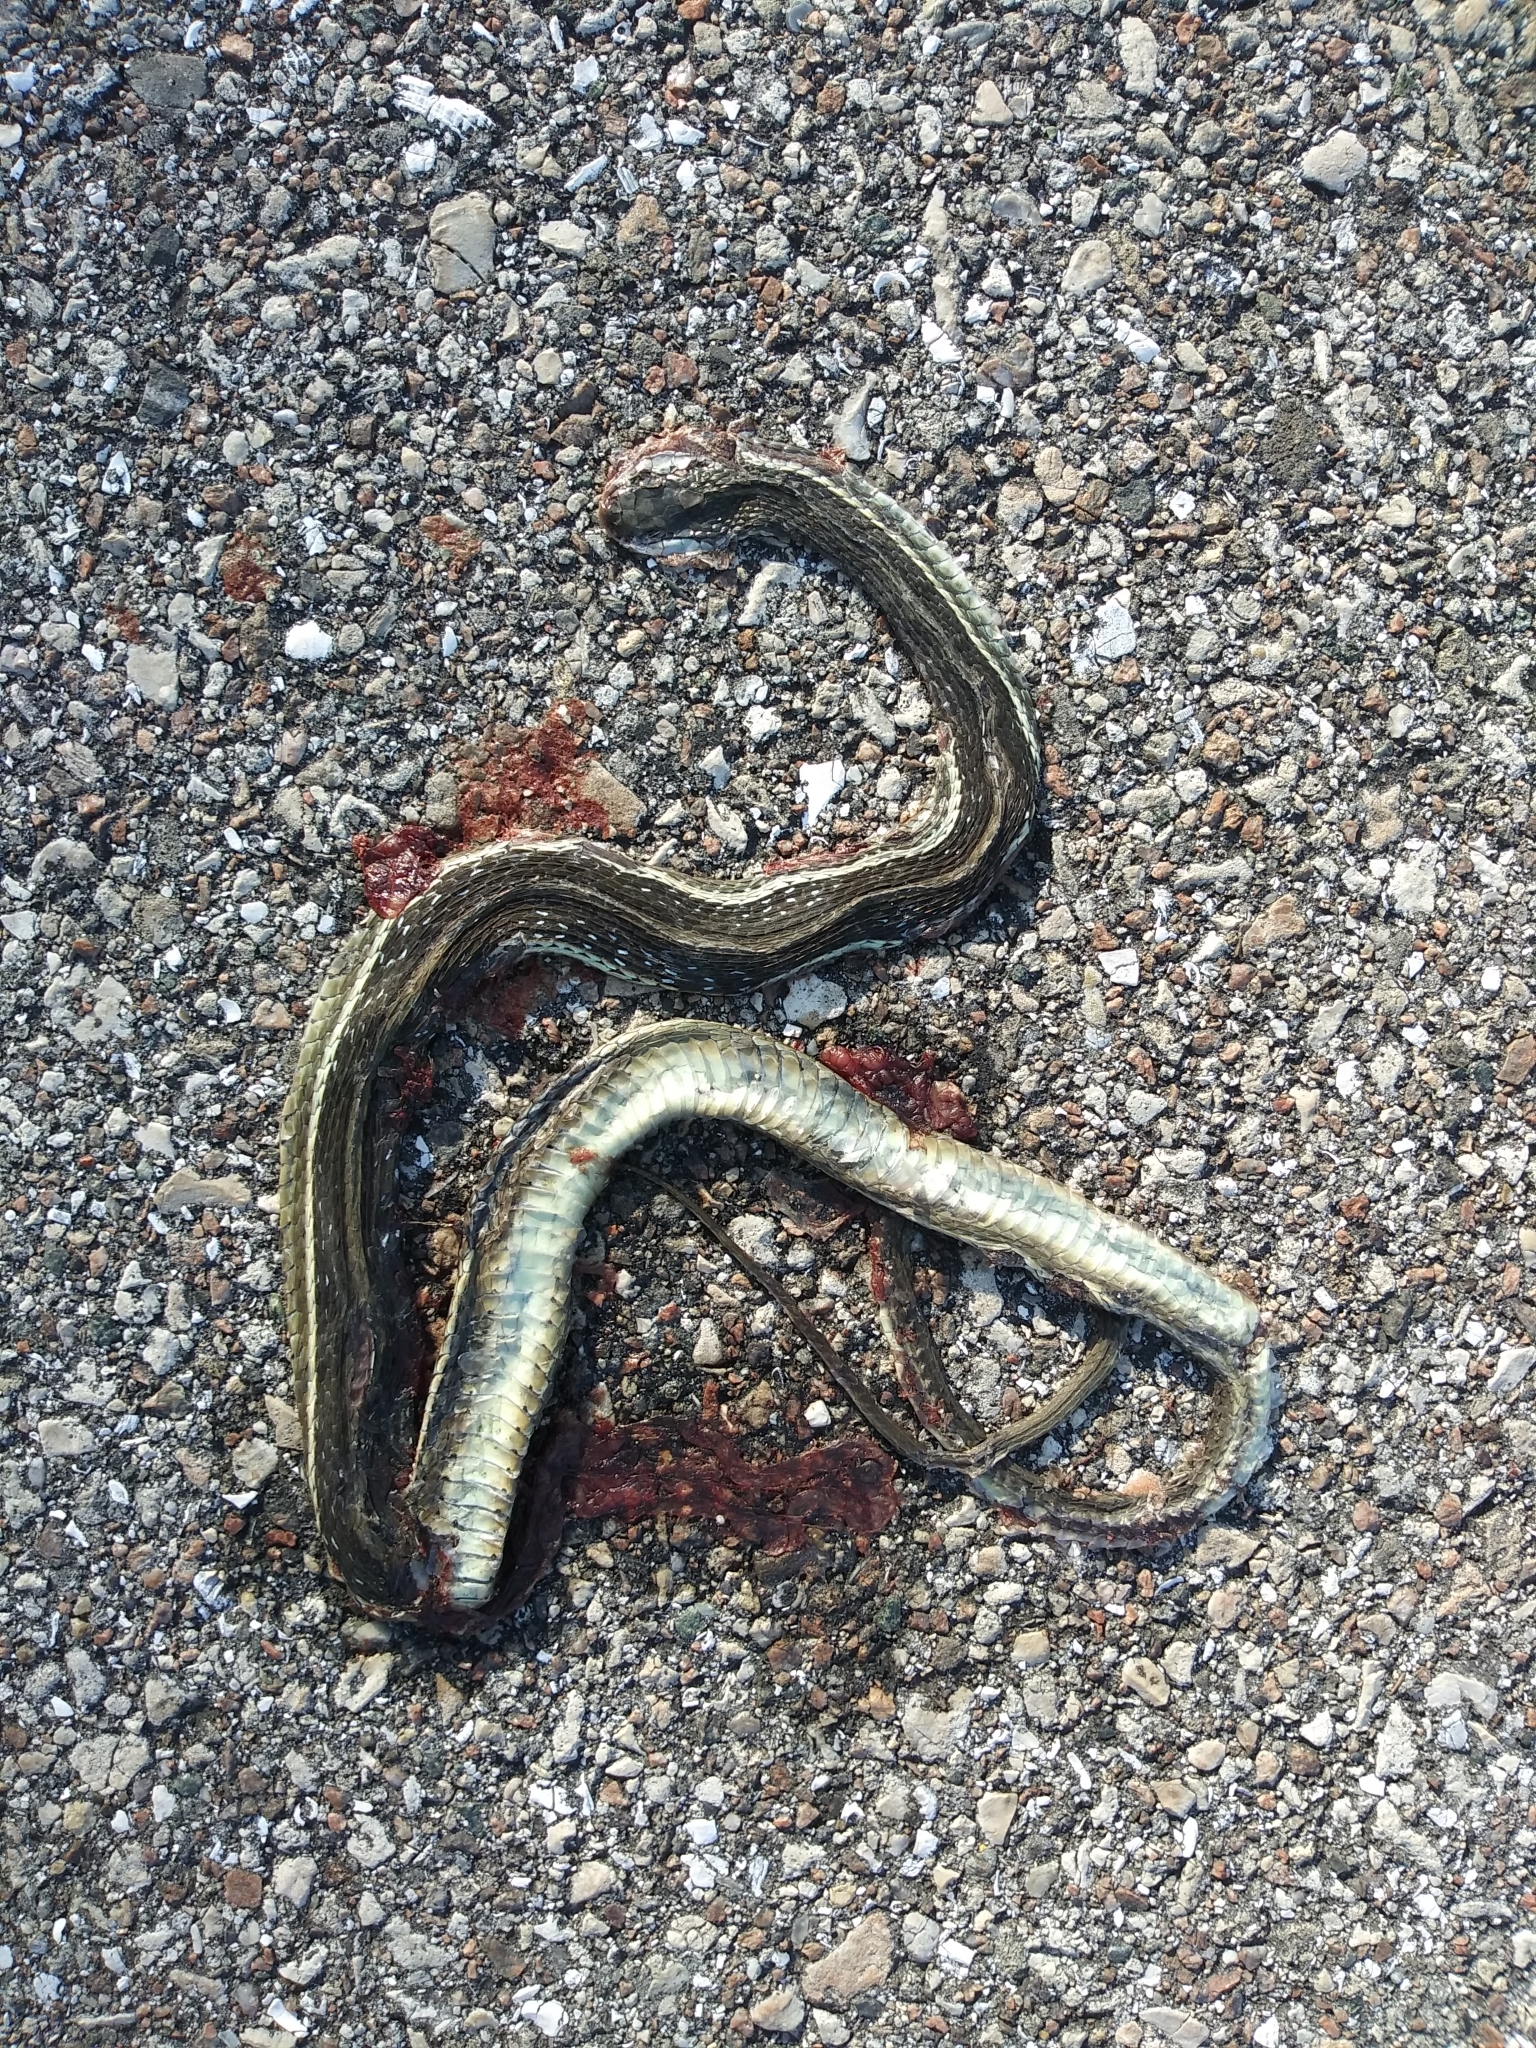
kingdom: Animalia
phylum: Chordata
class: Squamata
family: Colubridae
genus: Thamnophis
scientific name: Thamnophis saurita
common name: Eastern ribbonsnake
